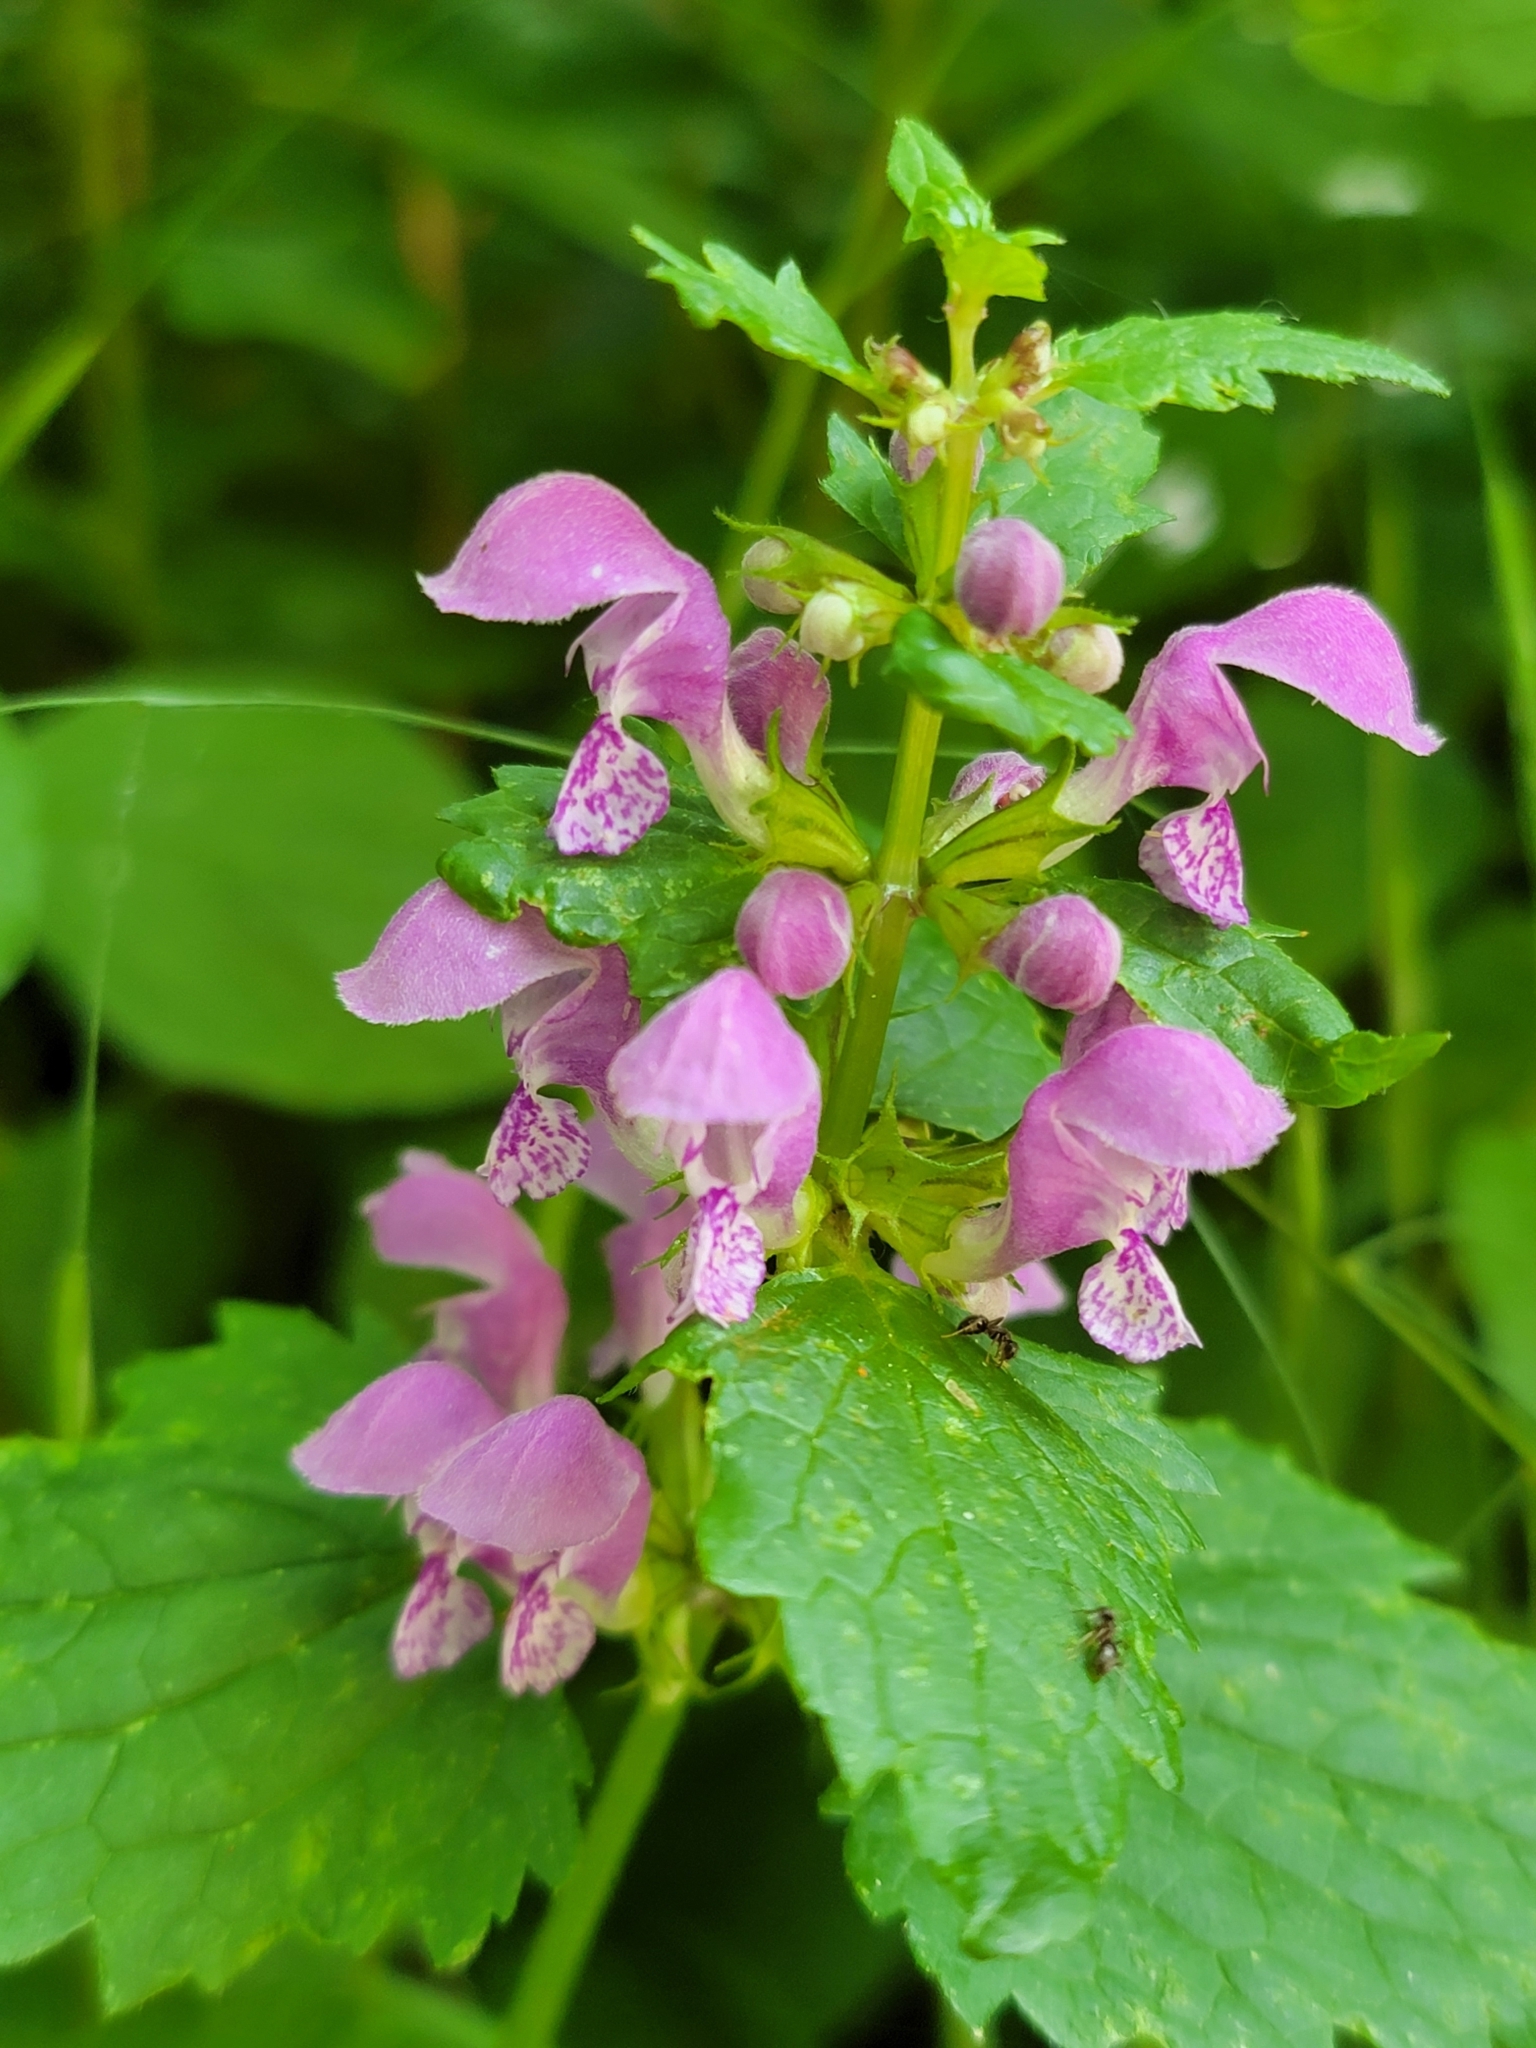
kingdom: Plantae
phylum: Tracheophyta
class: Magnoliopsida
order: Lamiales
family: Lamiaceae
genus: Lamium
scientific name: Lamium maculatum
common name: Spotted dead-nettle
